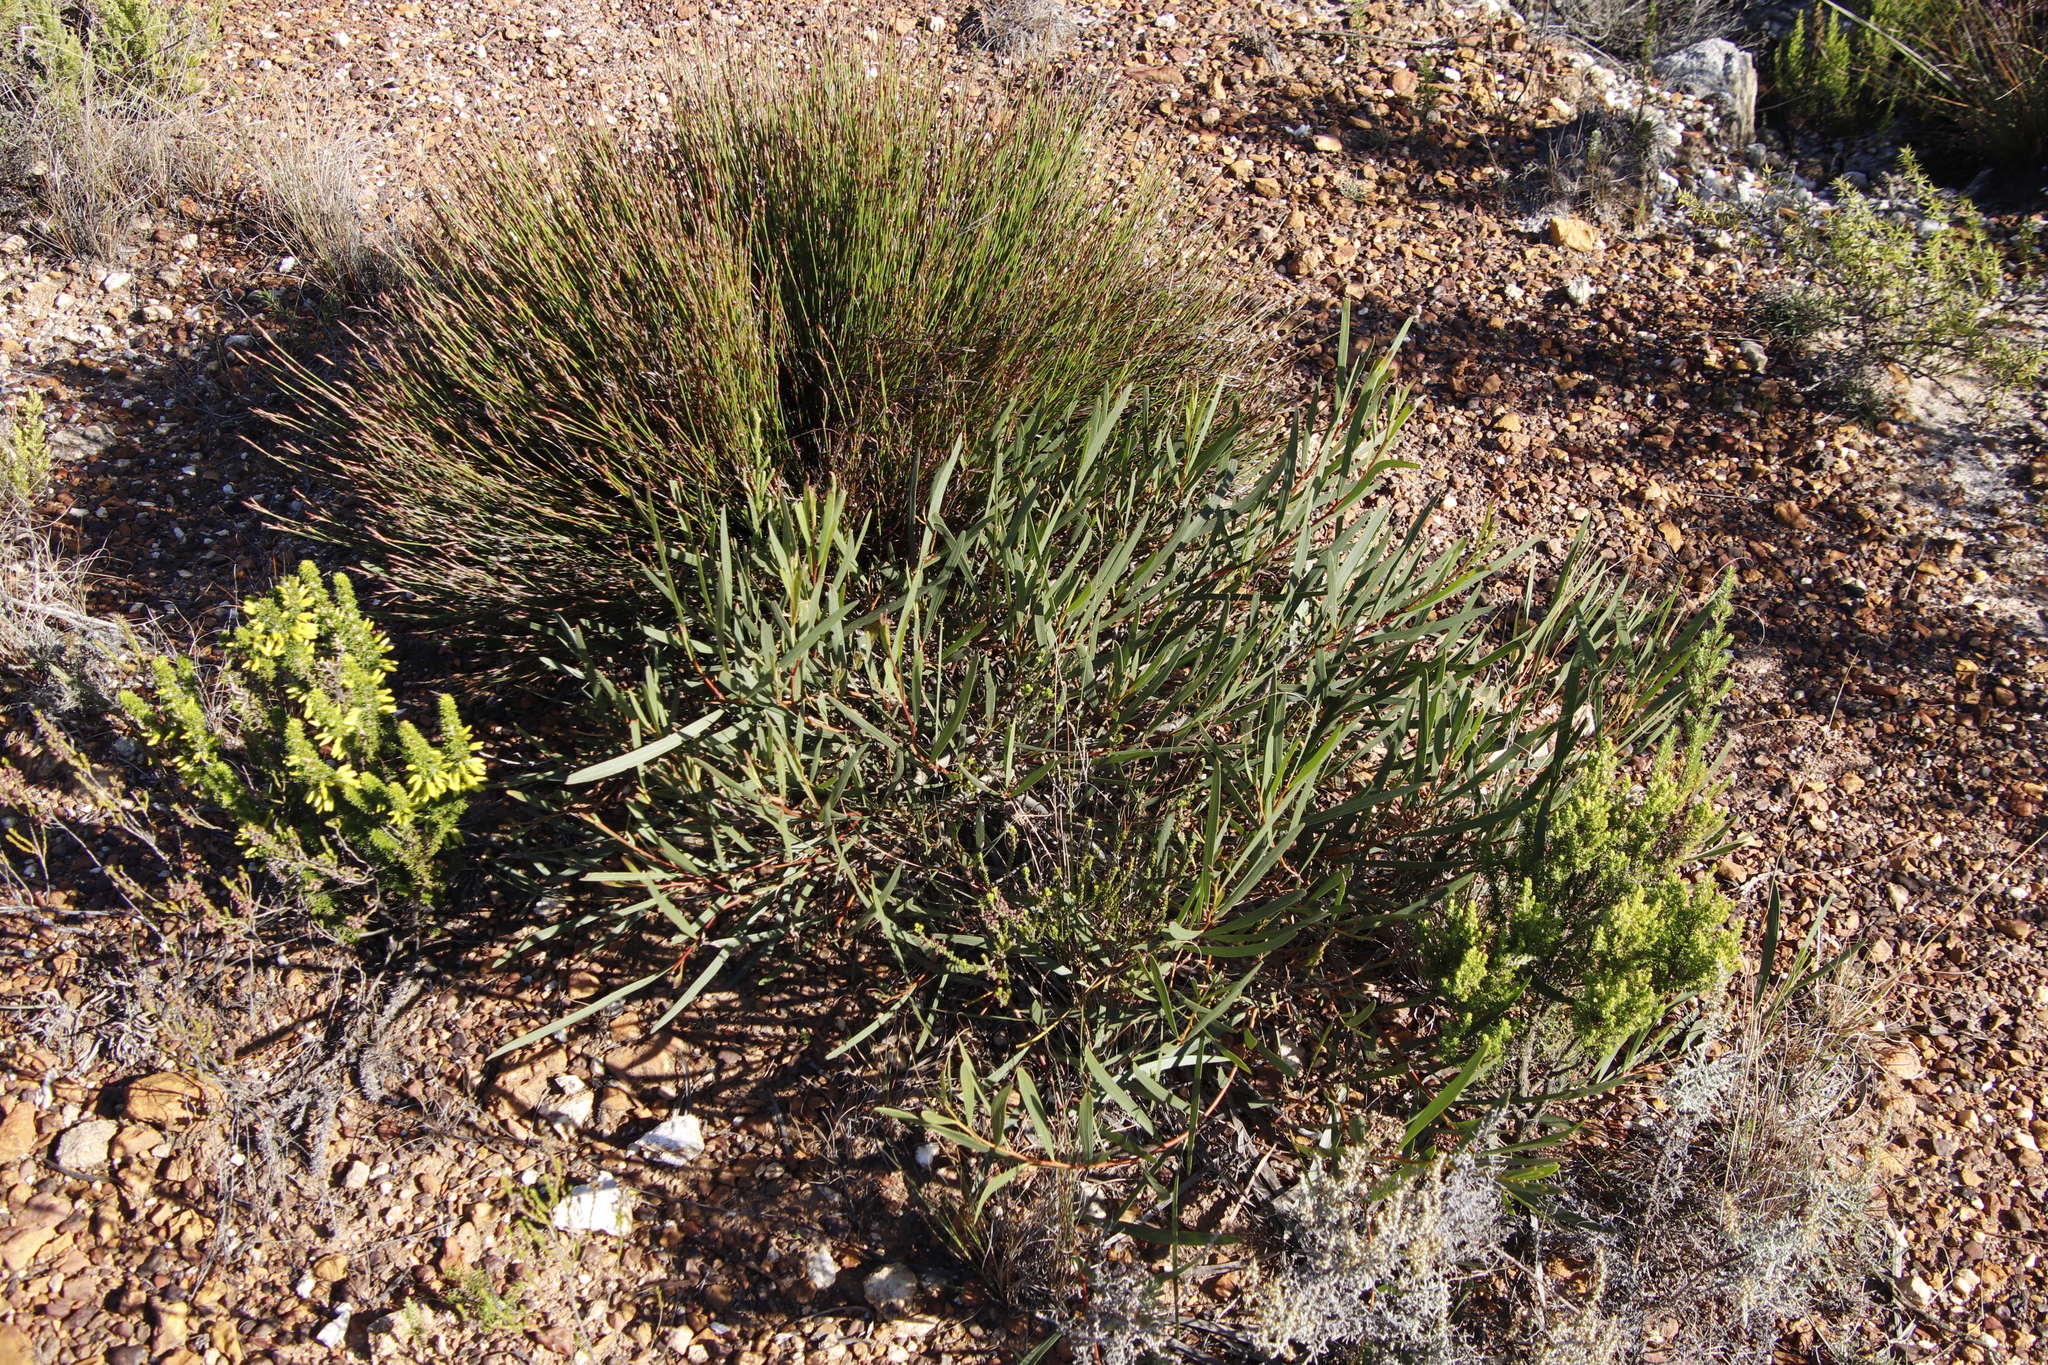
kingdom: Plantae
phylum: Tracheophyta
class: Magnoliopsida
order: Fabales
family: Fabaceae
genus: Acacia
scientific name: Acacia longifolia
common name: Sydney golden wattle
